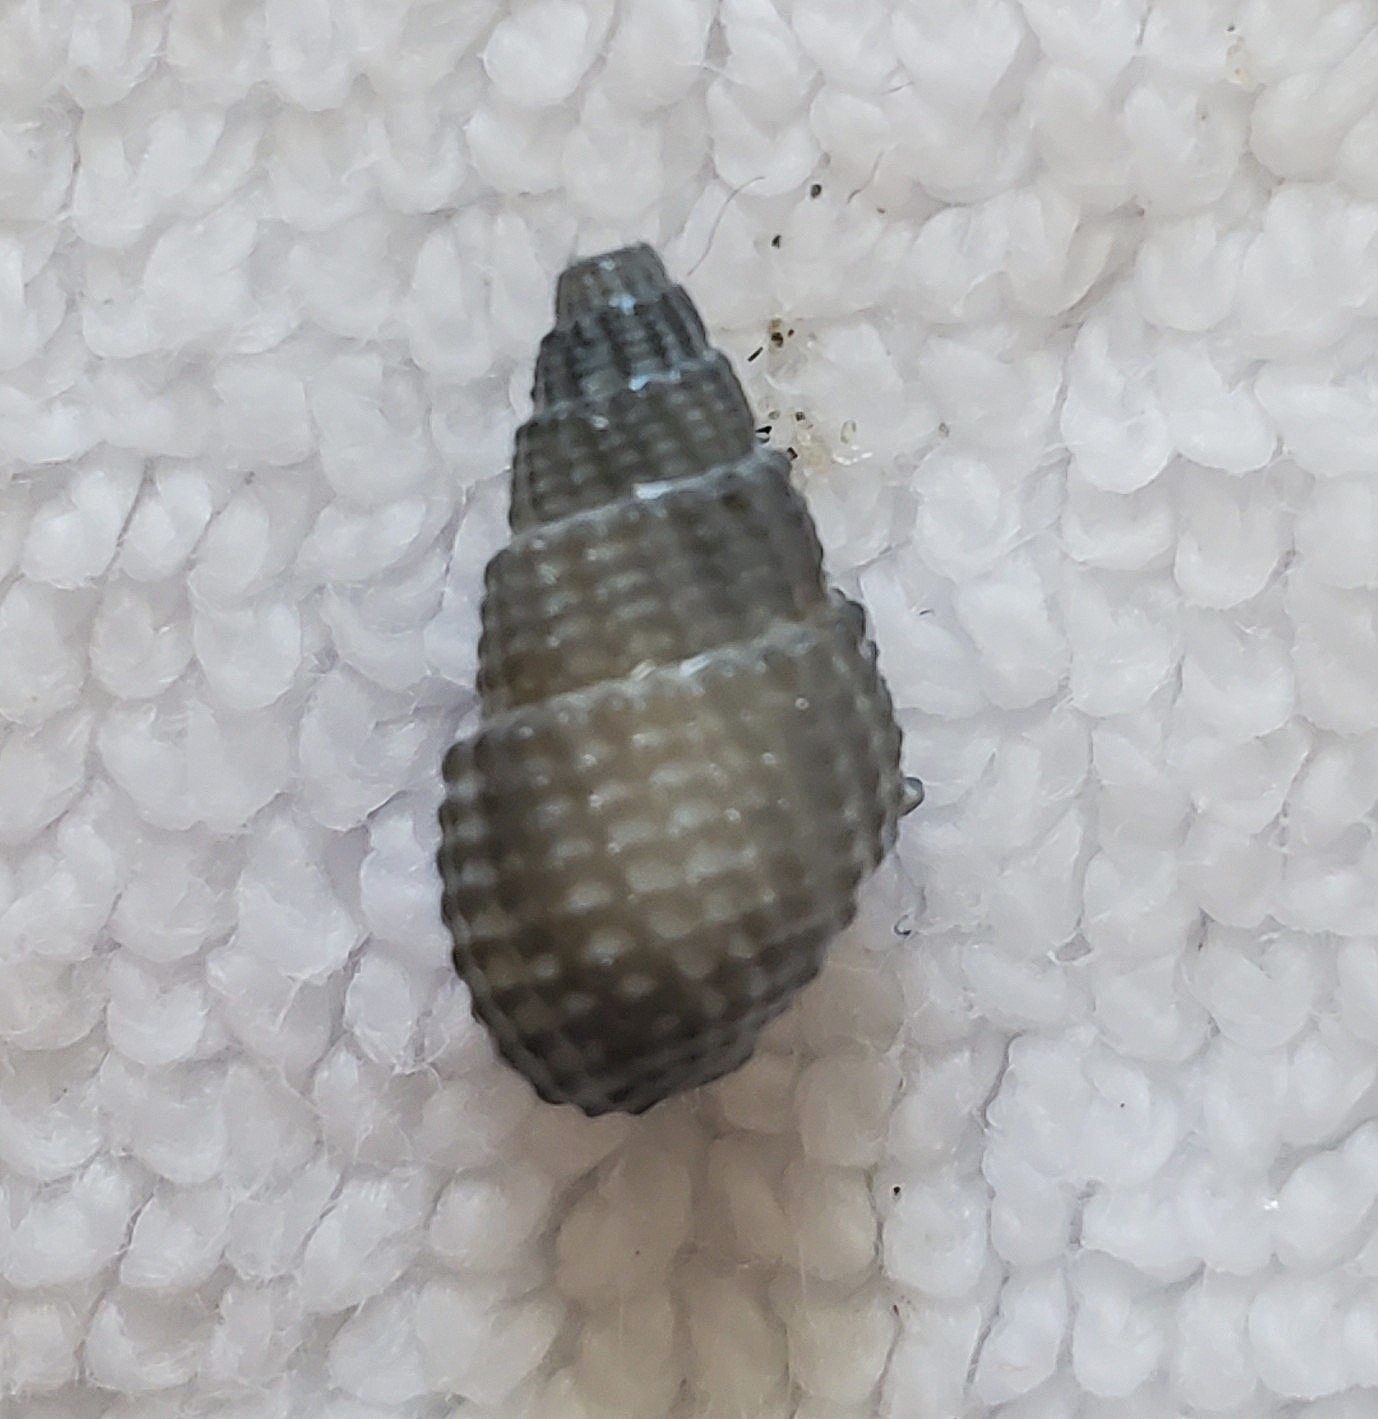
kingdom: Animalia
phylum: Mollusca
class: Gastropoda
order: Neogastropoda
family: Nassariidae
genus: Ilyanassa
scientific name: Ilyanassa trivittata
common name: Three-line mudsnail
